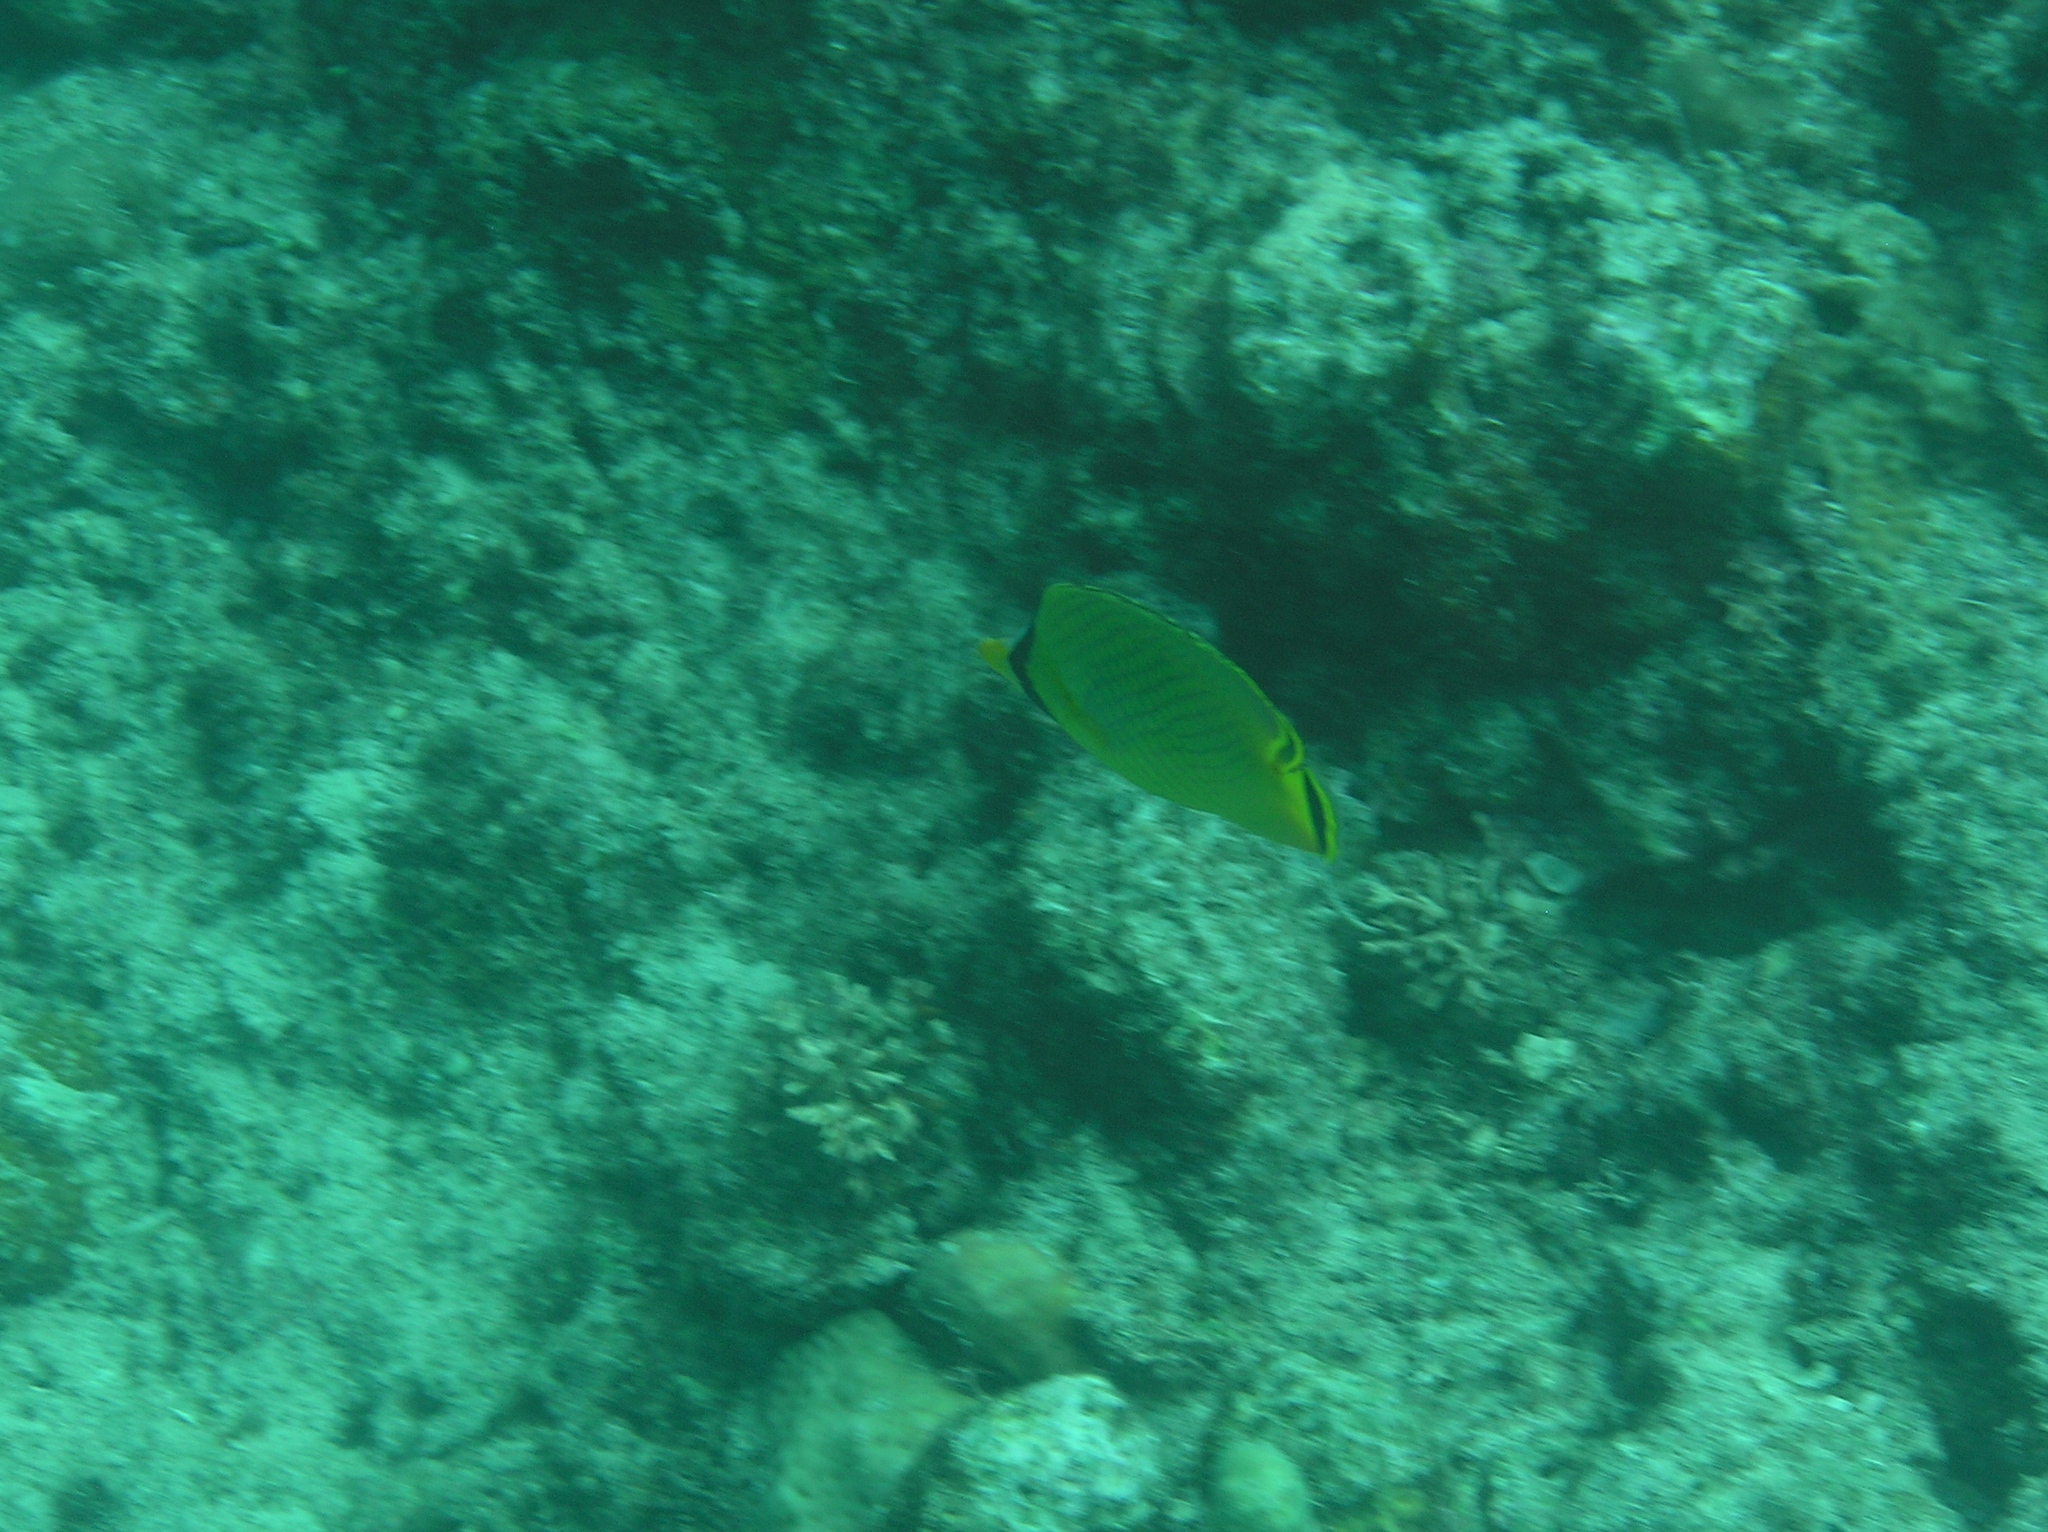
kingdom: Animalia
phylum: Chordata
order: Perciformes
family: Chaetodontidae
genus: Chaetodon
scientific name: Chaetodon rafflesii
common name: Latticed butterflyfish
